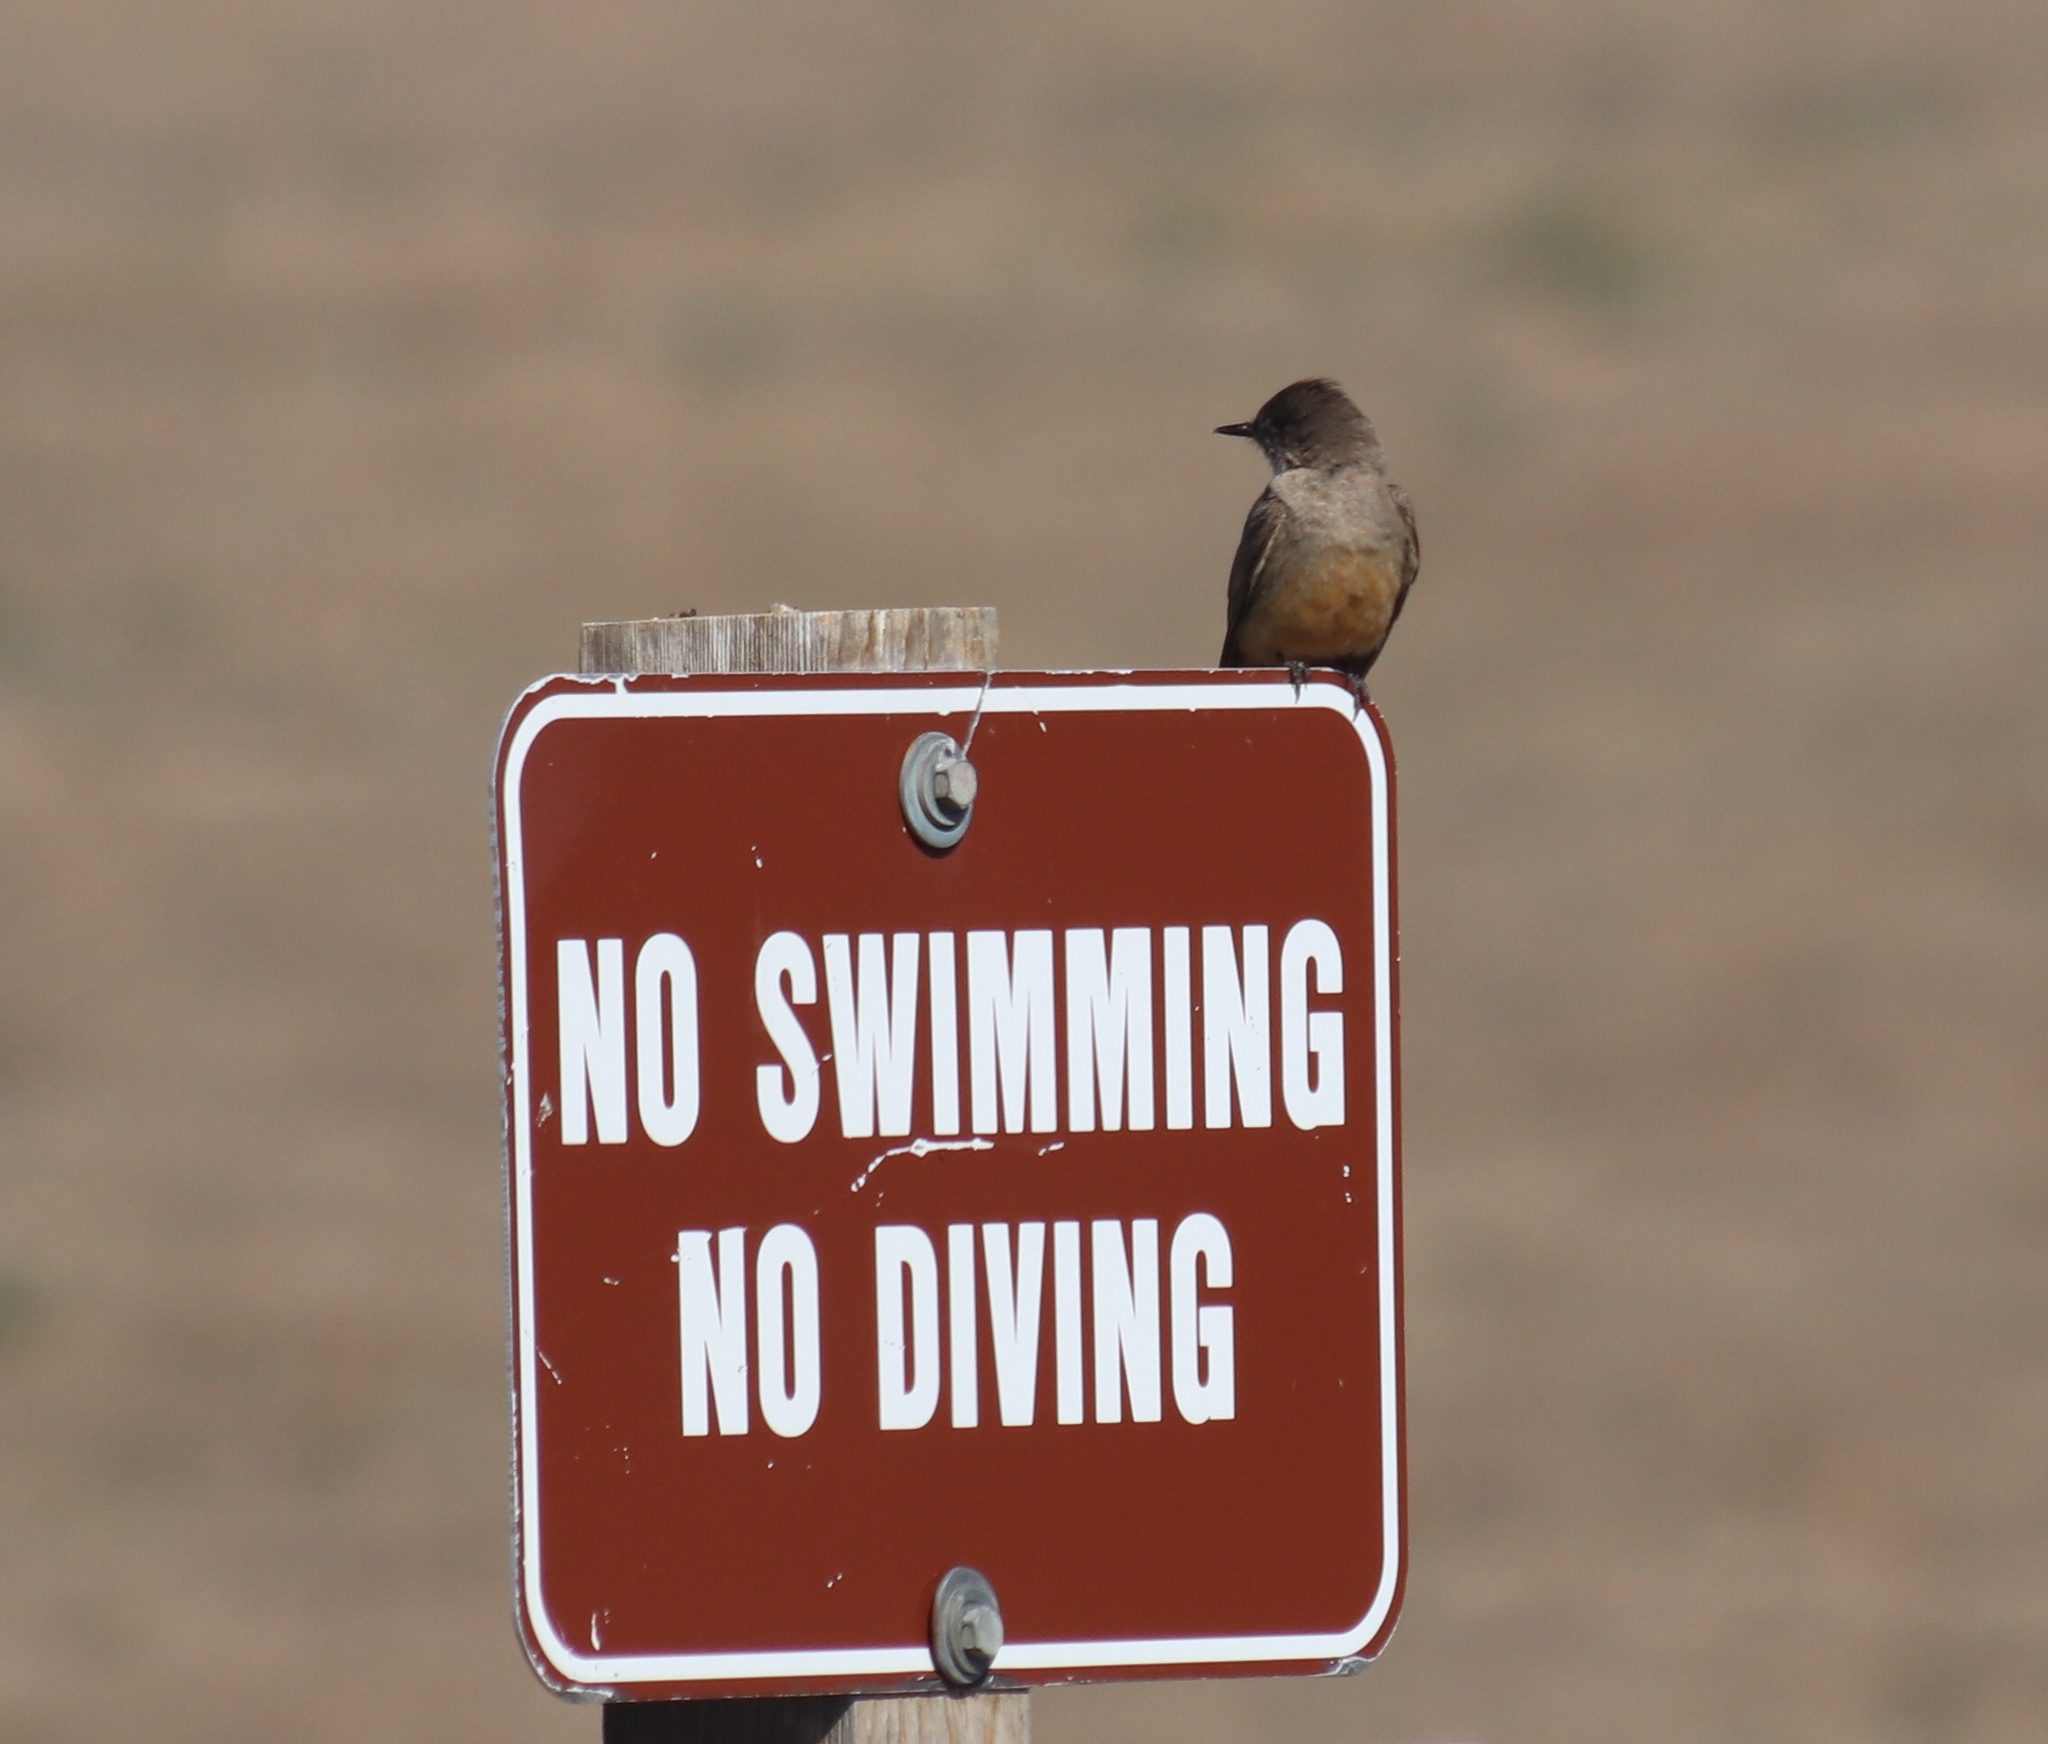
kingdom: Animalia
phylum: Chordata
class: Aves
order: Passeriformes
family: Tyrannidae
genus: Sayornis
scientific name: Sayornis saya
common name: Say's phoebe
